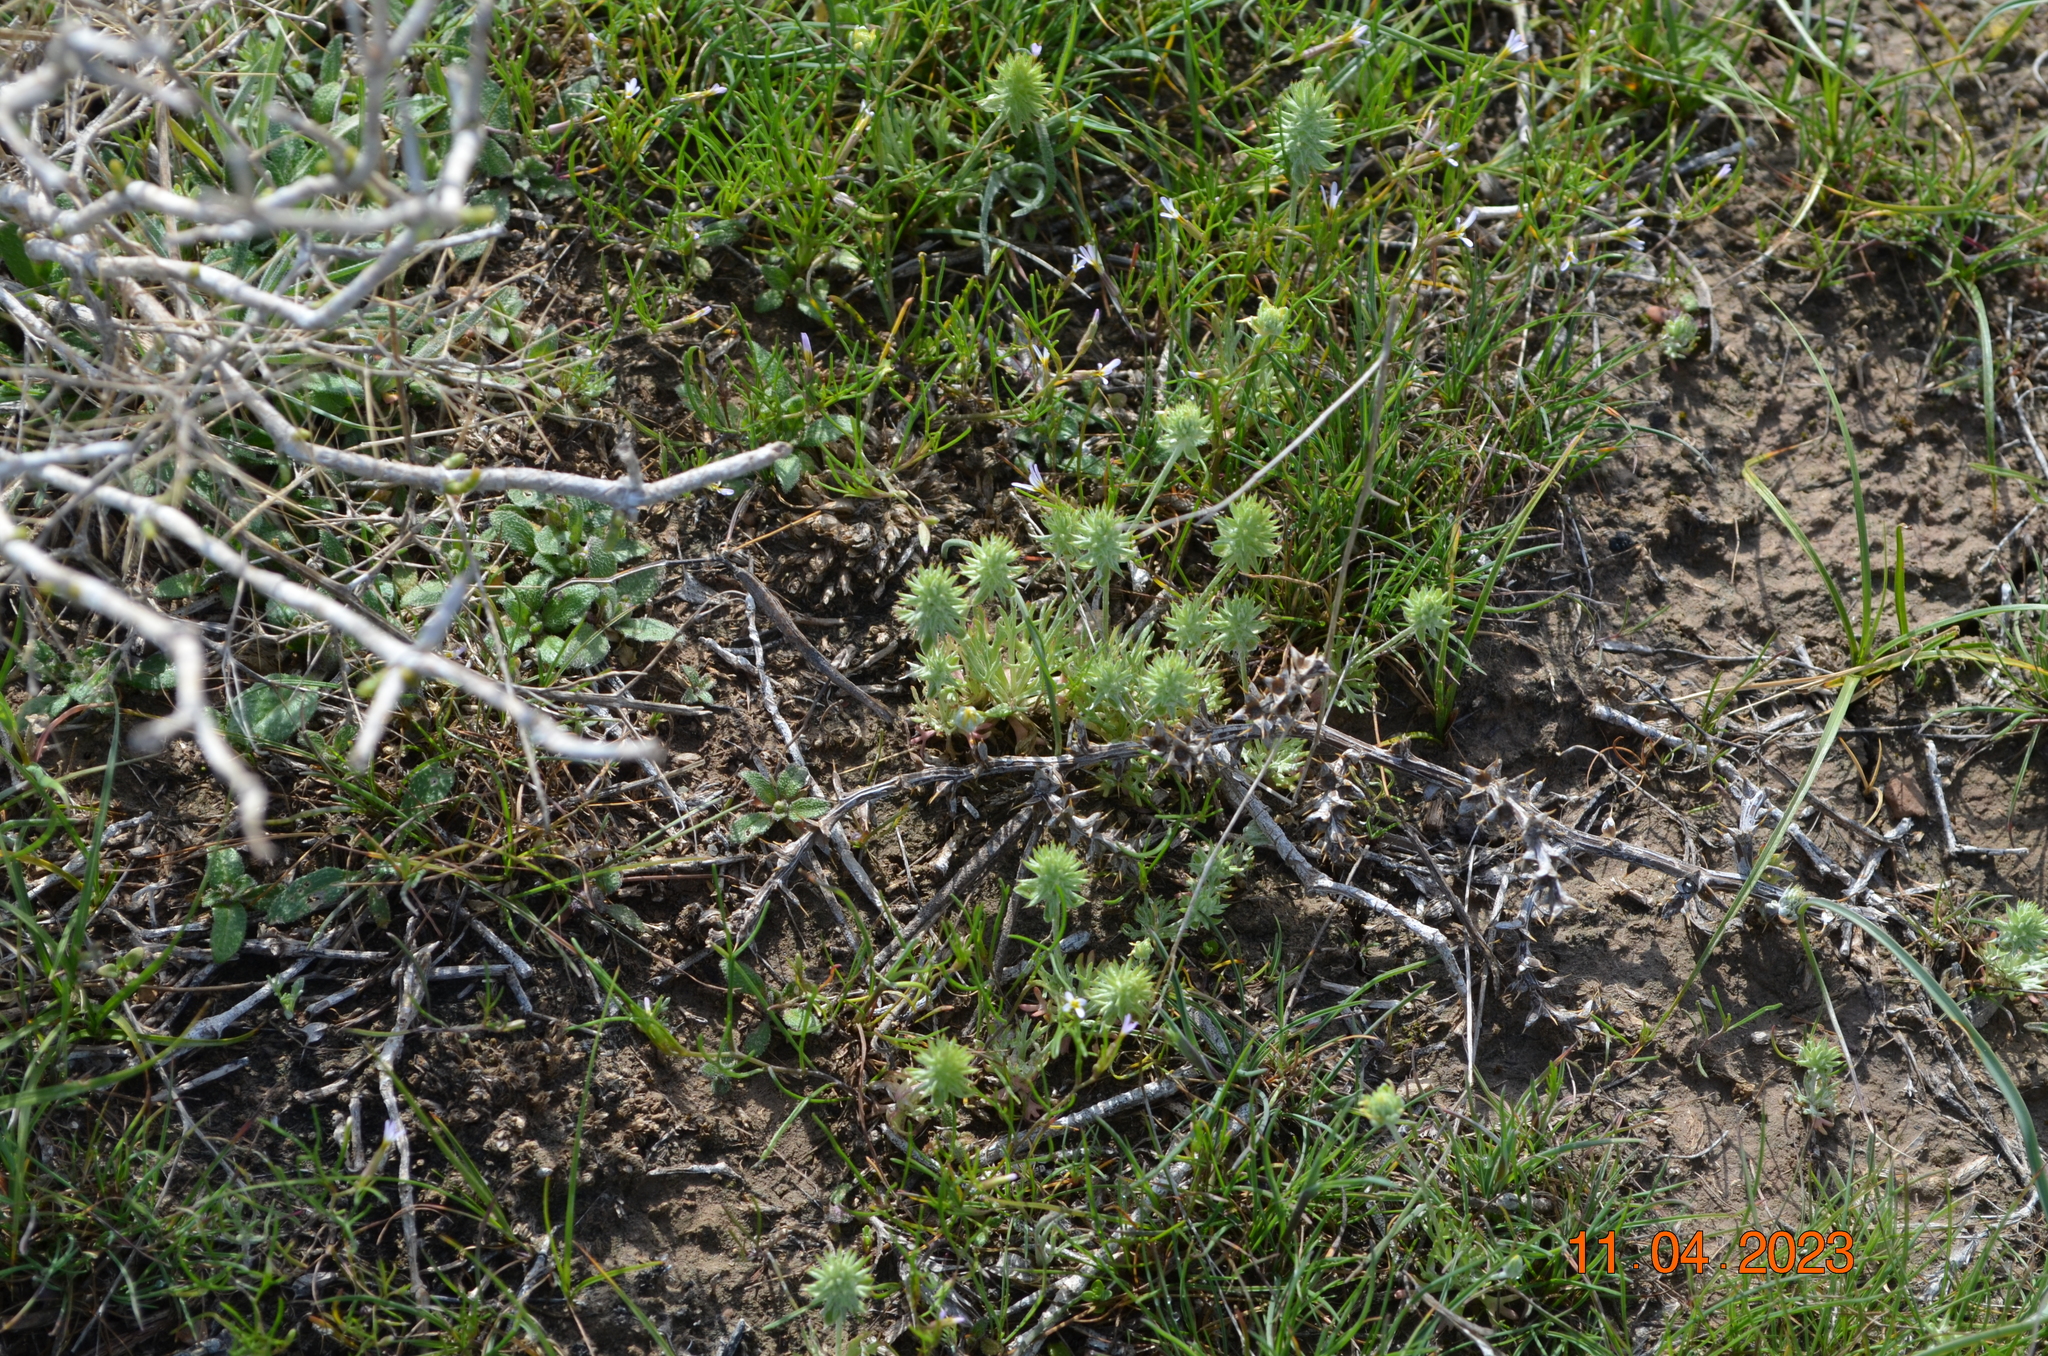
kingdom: Plantae
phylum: Tracheophyta
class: Magnoliopsida
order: Ranunculales
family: Ranunculaceae
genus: Ceratocephala
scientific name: Ceratocephala orthoceras
